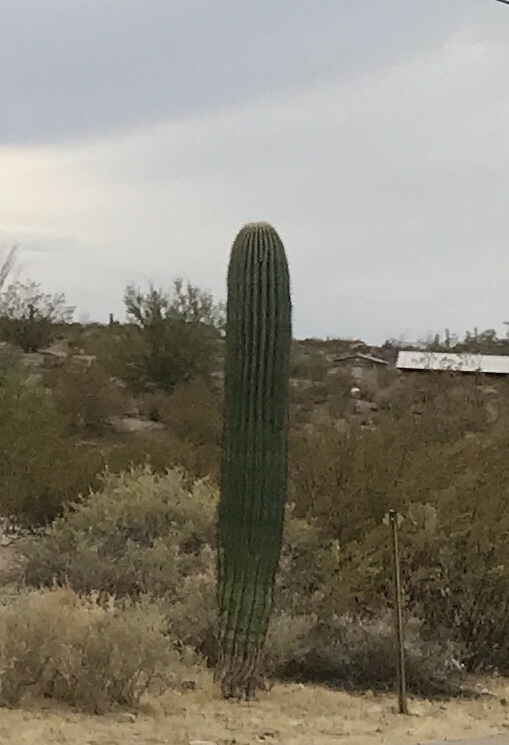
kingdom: Plantae
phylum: Tracheophyta
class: Magnoliopsida
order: Caryophyllales
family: Cactaceae
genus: Carnegiea
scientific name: Carnegiea gigantea
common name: Saguaro
